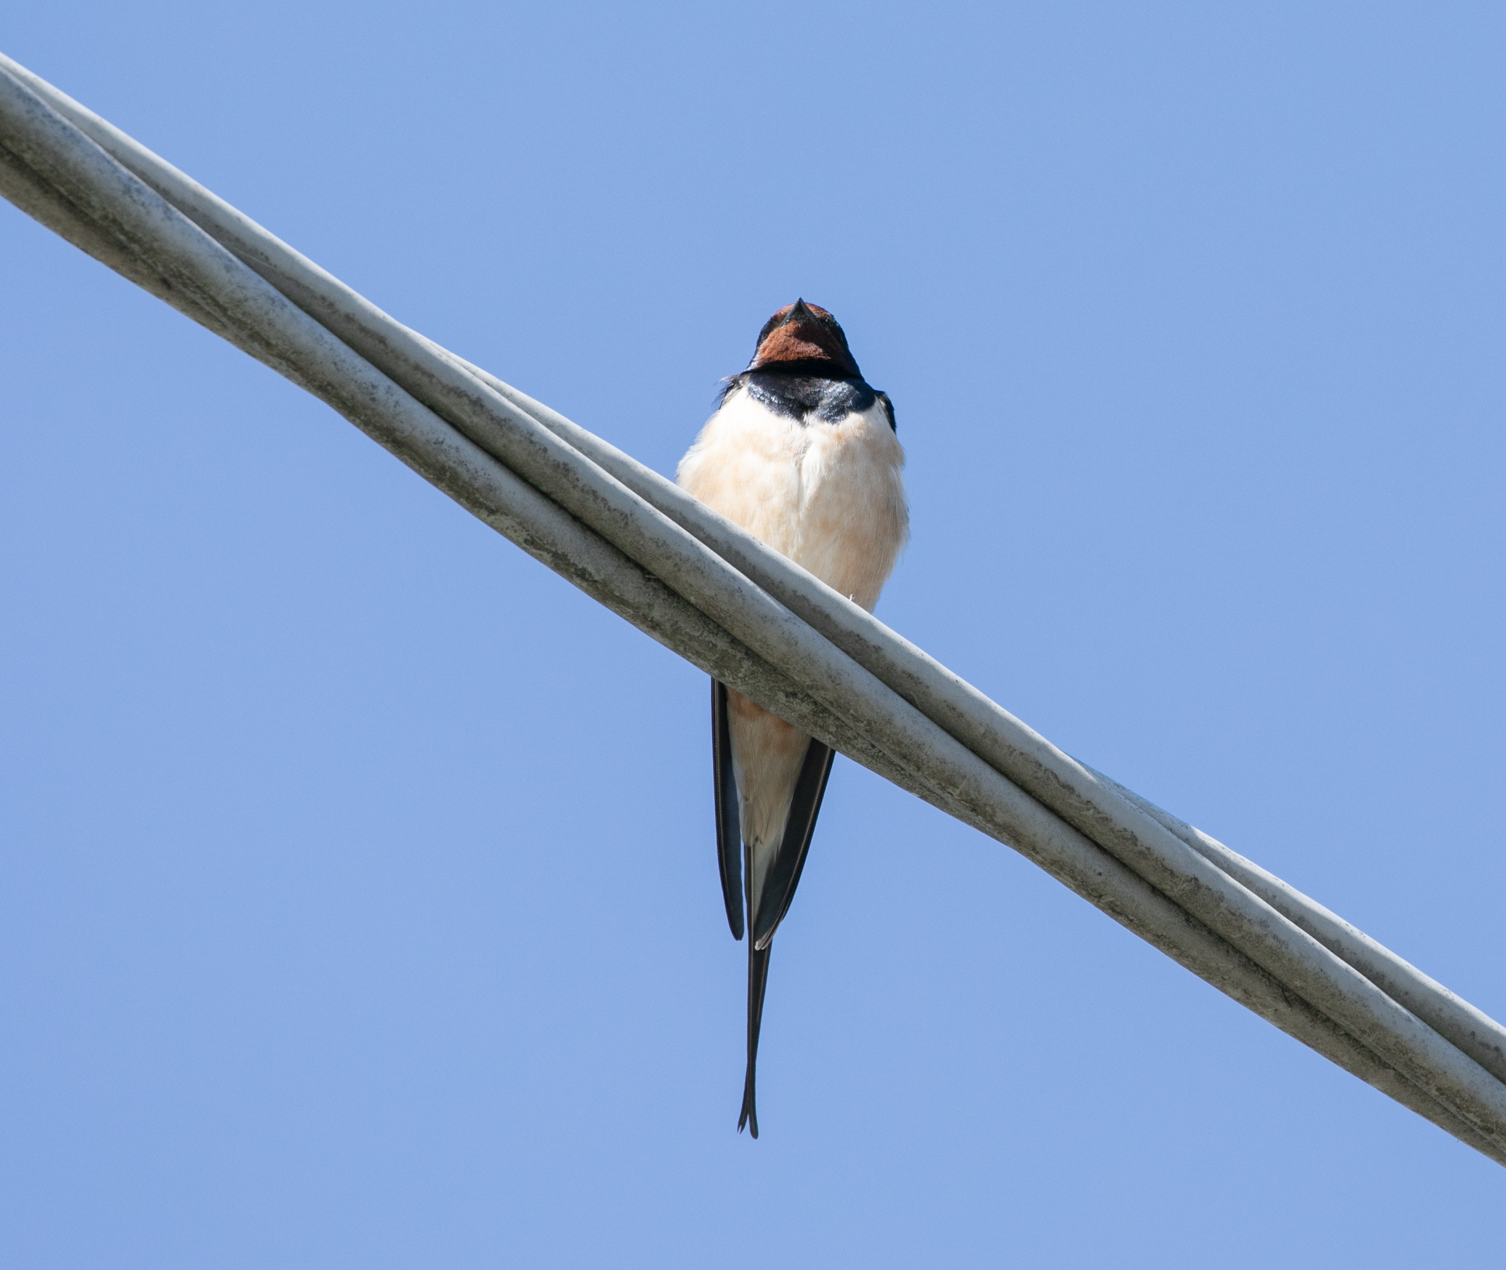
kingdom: Animalia
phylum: Chordata
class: Aves
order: Passeriformes
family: Hirundinidae
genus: Hirundo
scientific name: Hirundo rustica
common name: Barn swallow
